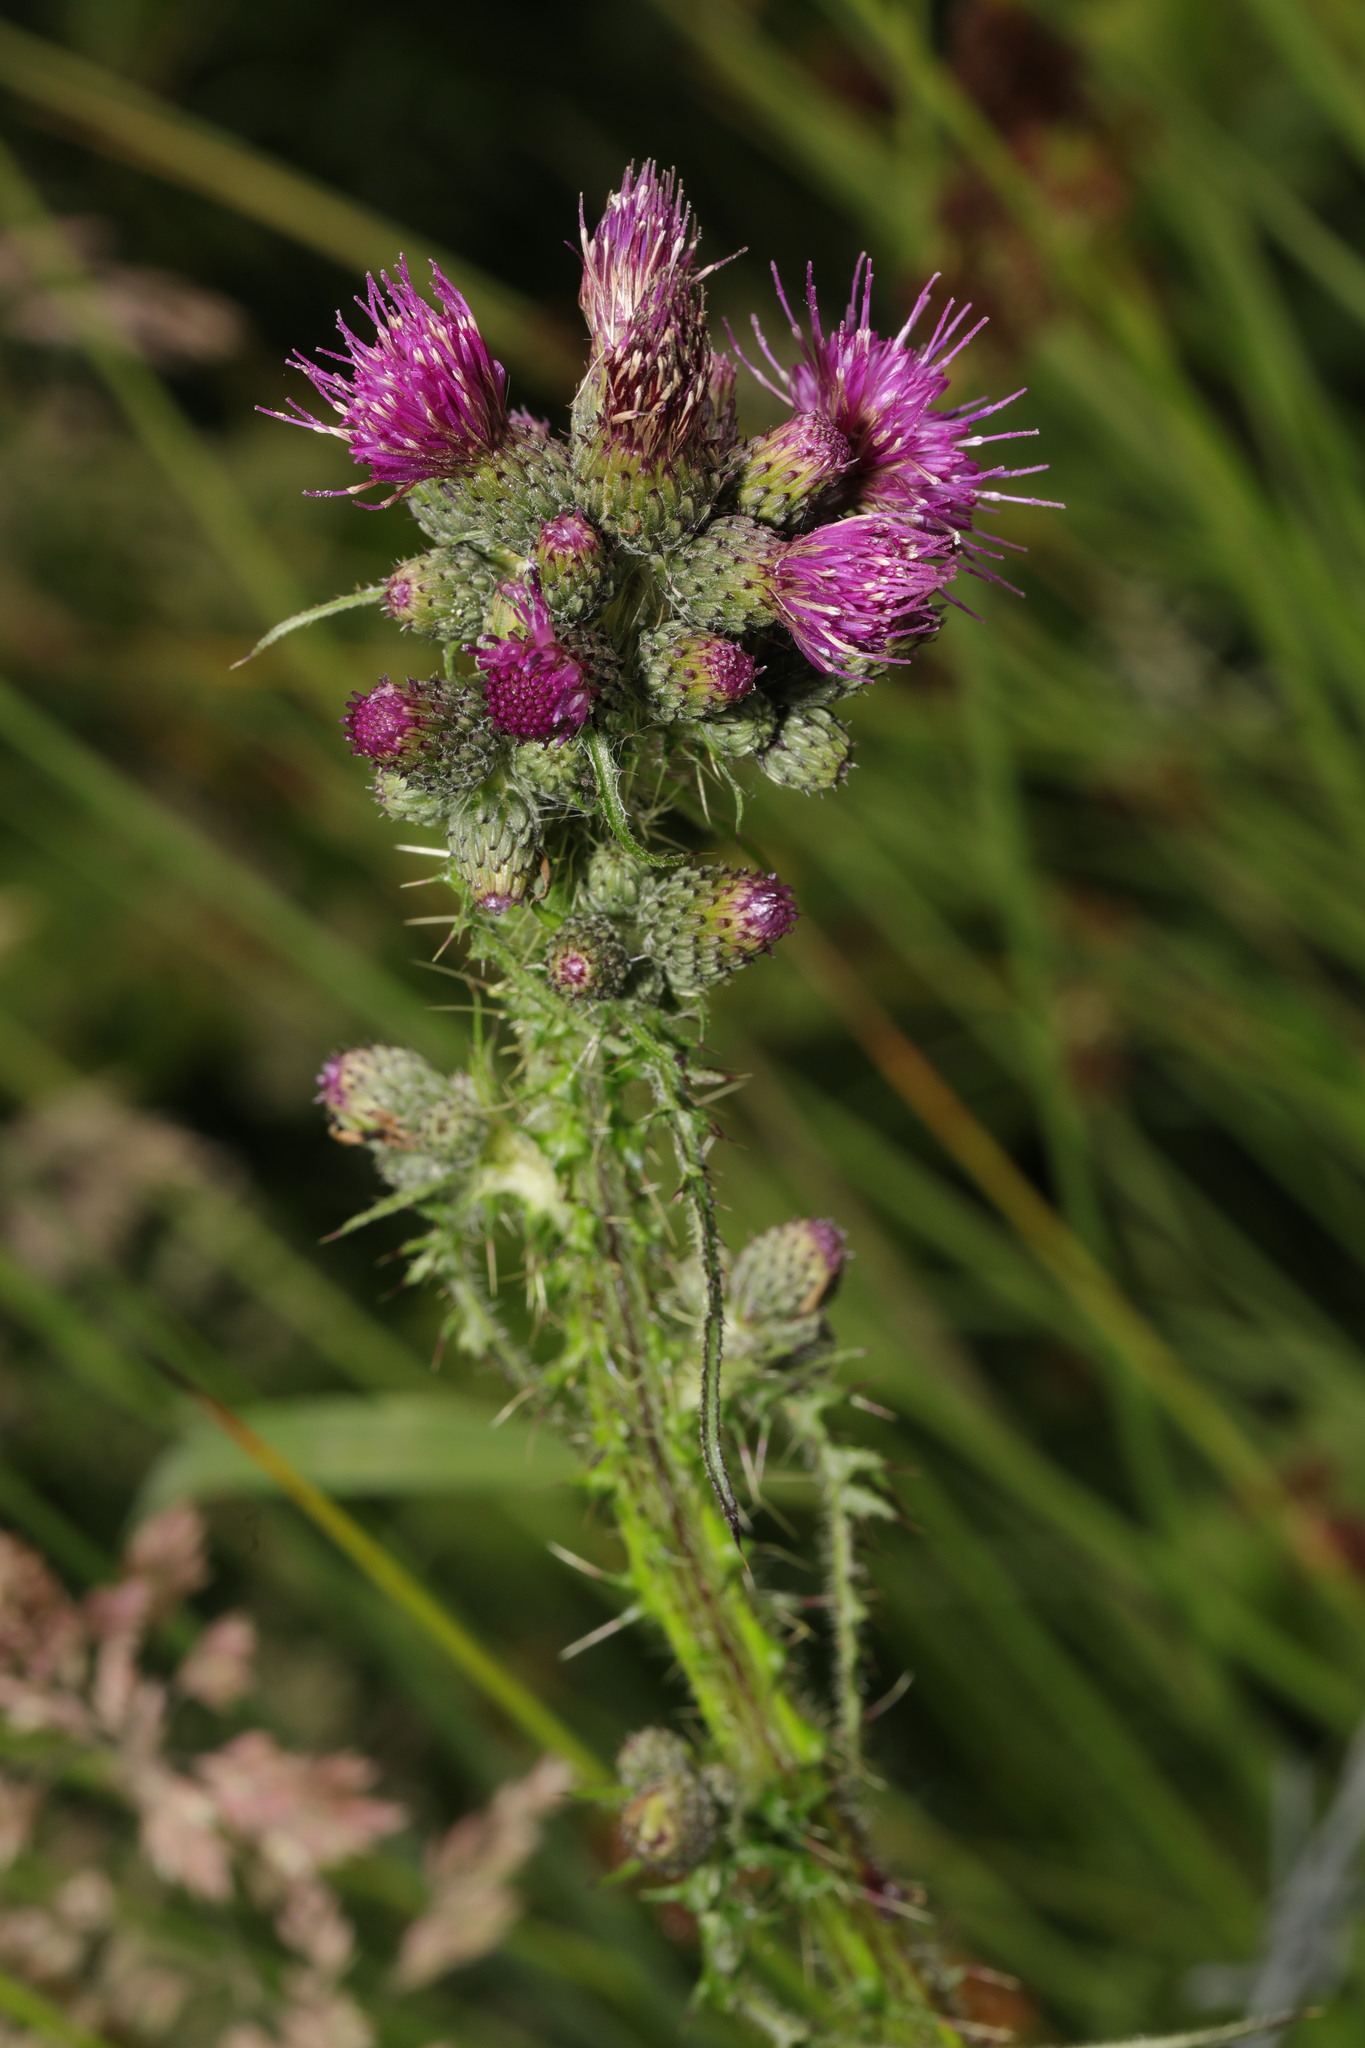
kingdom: Plantae
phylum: Tracheophyta
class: Magnoliopsida
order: Asterales
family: Asteraceae
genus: Cirsium
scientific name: Cirsium palustre
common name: Marsh thistle
